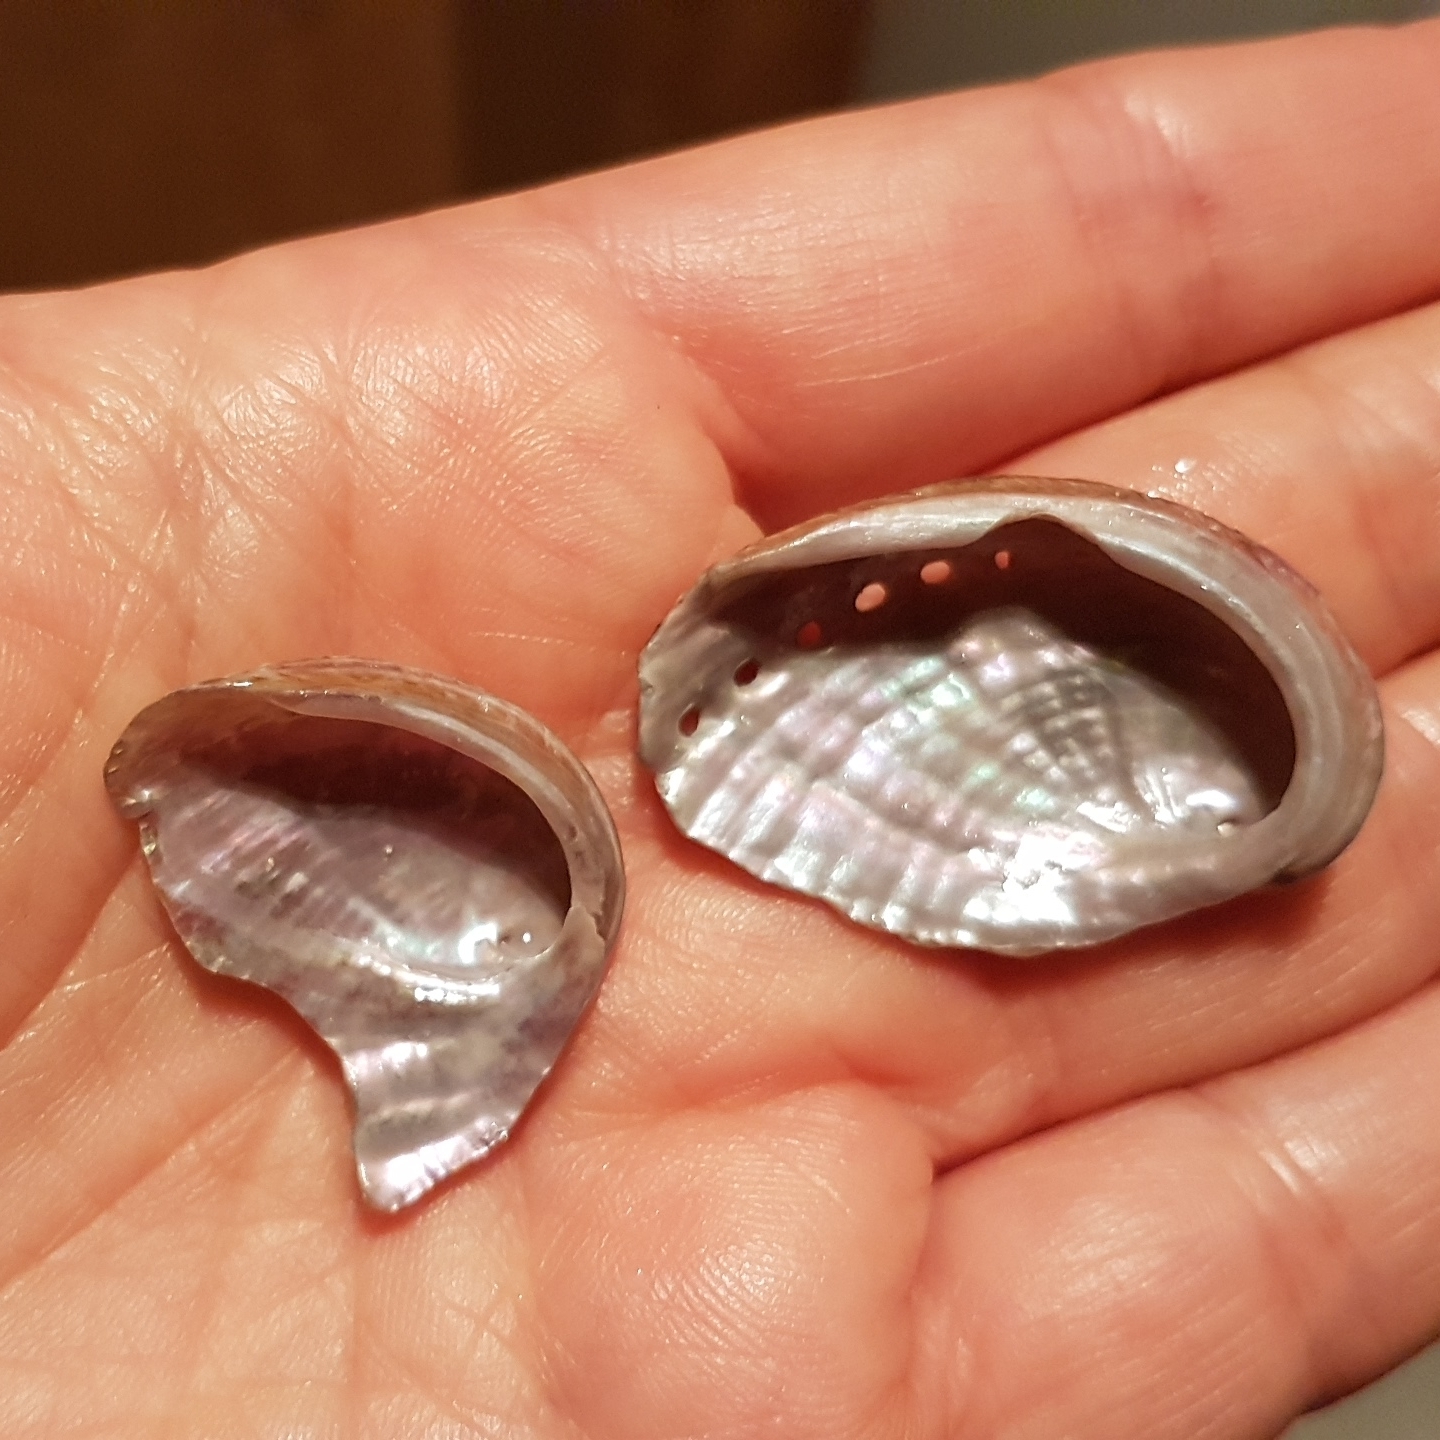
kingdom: Animalia
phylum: Mollusca
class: Gastropoda
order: Lepetellida
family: Haliotidae
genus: Haliotis
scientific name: Haliotis tuberculata
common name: Green ormer
